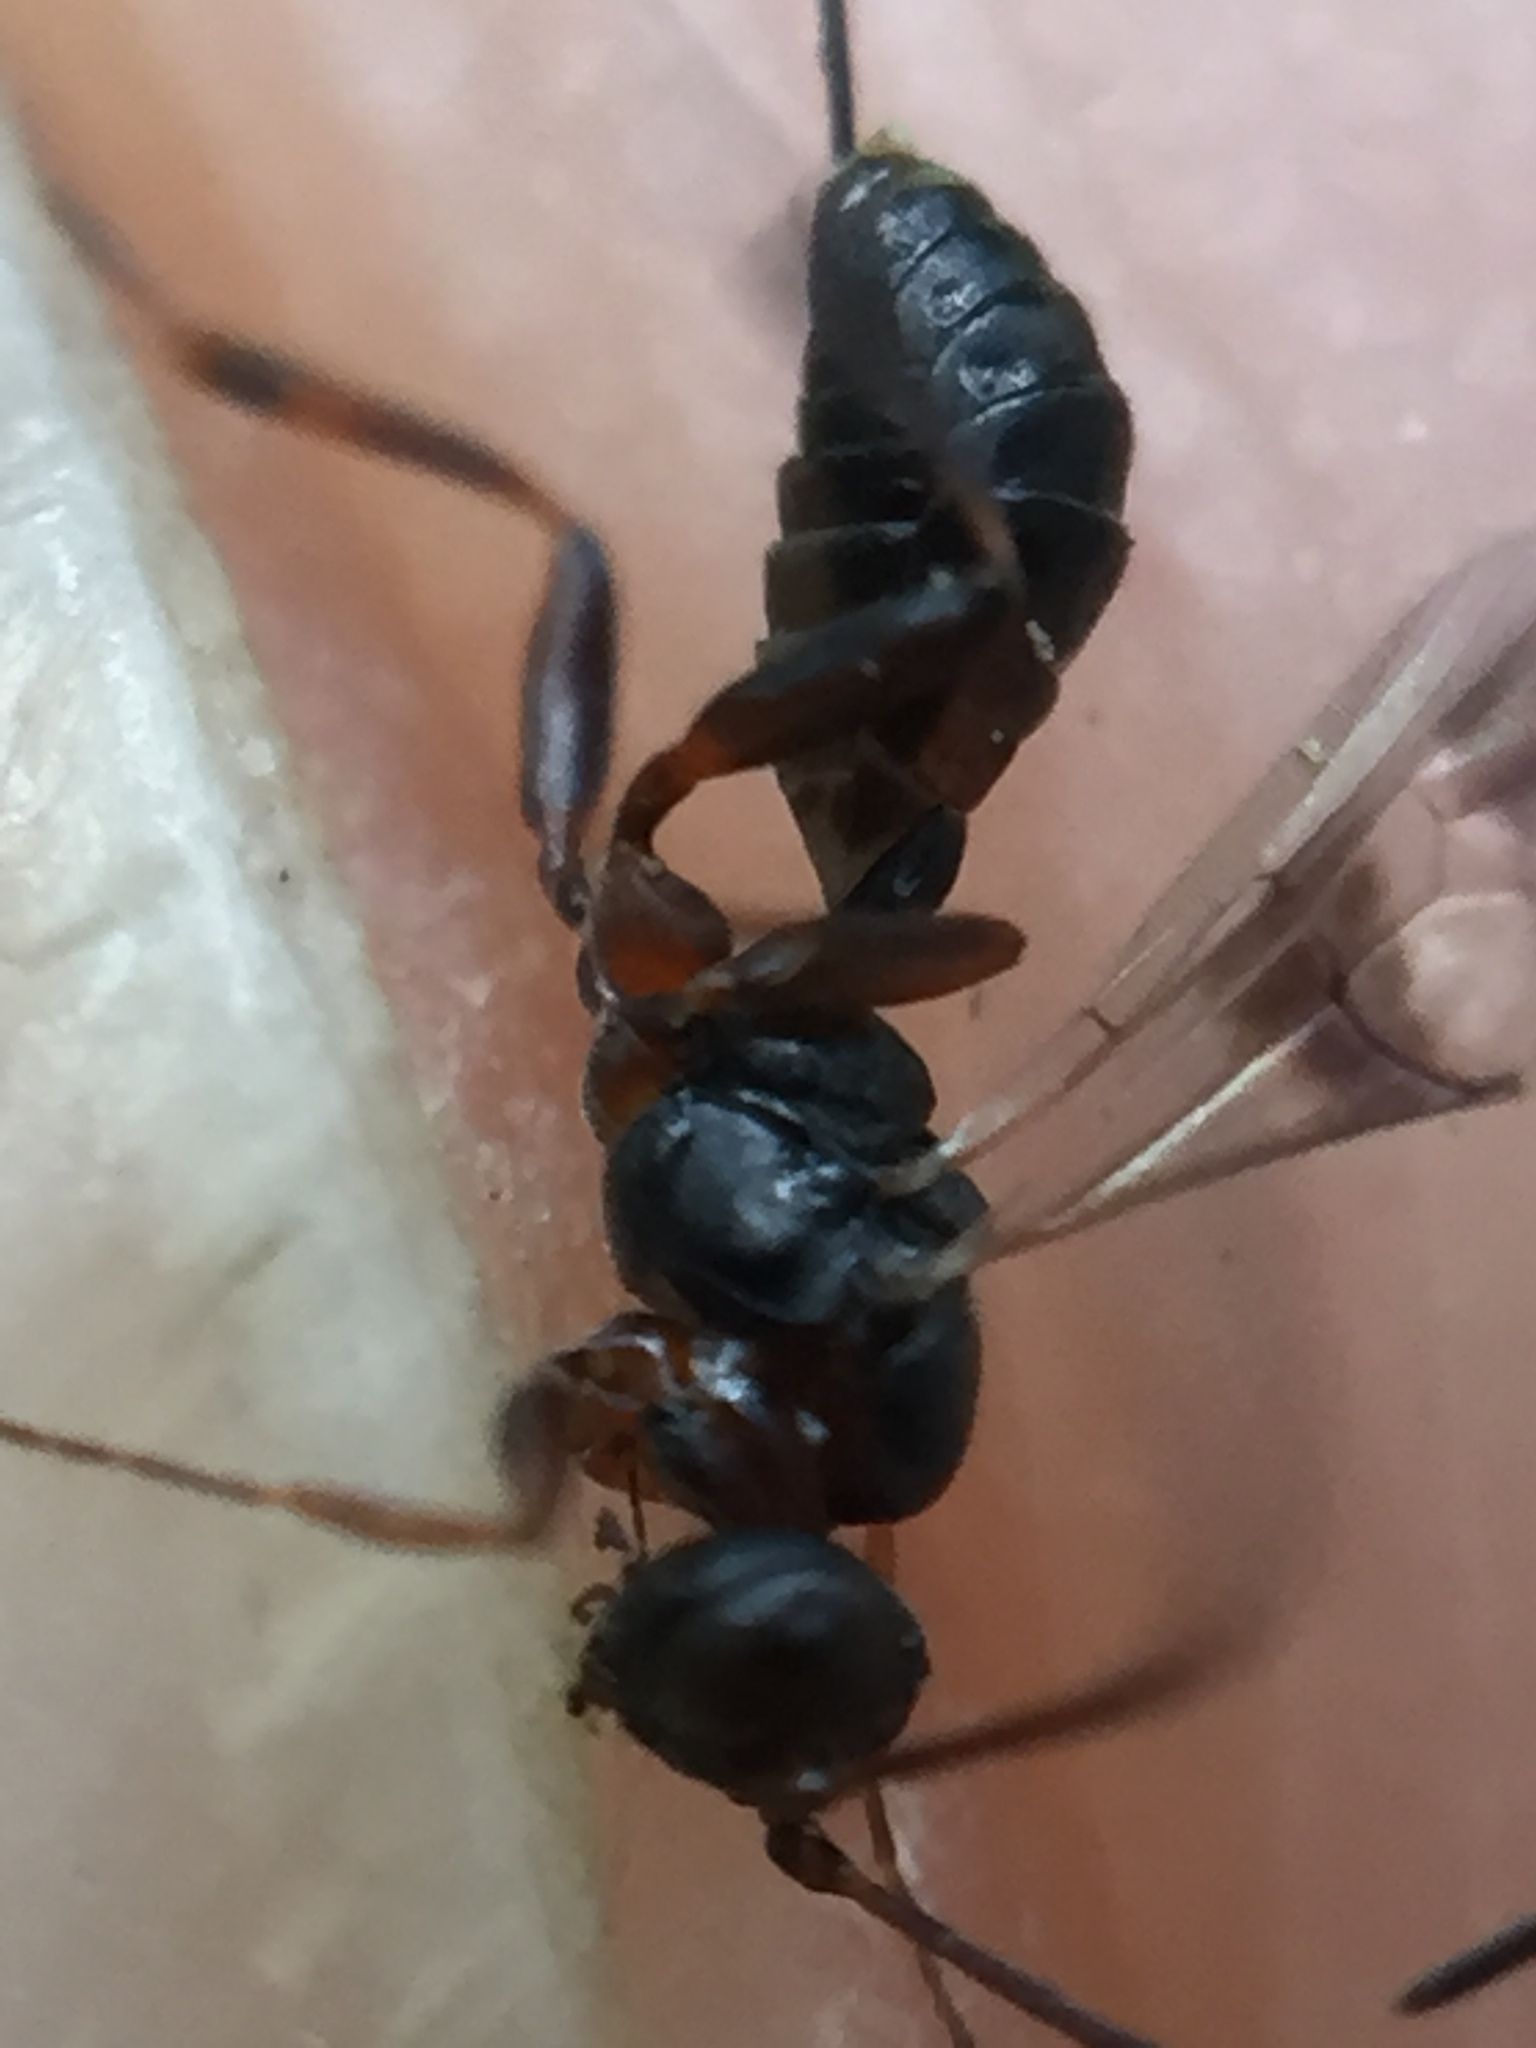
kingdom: Animalia
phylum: Arthropoda
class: Insecta
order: Hymenoptera
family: Ichneumonidae
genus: Gelis
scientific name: Gelis cinctus
